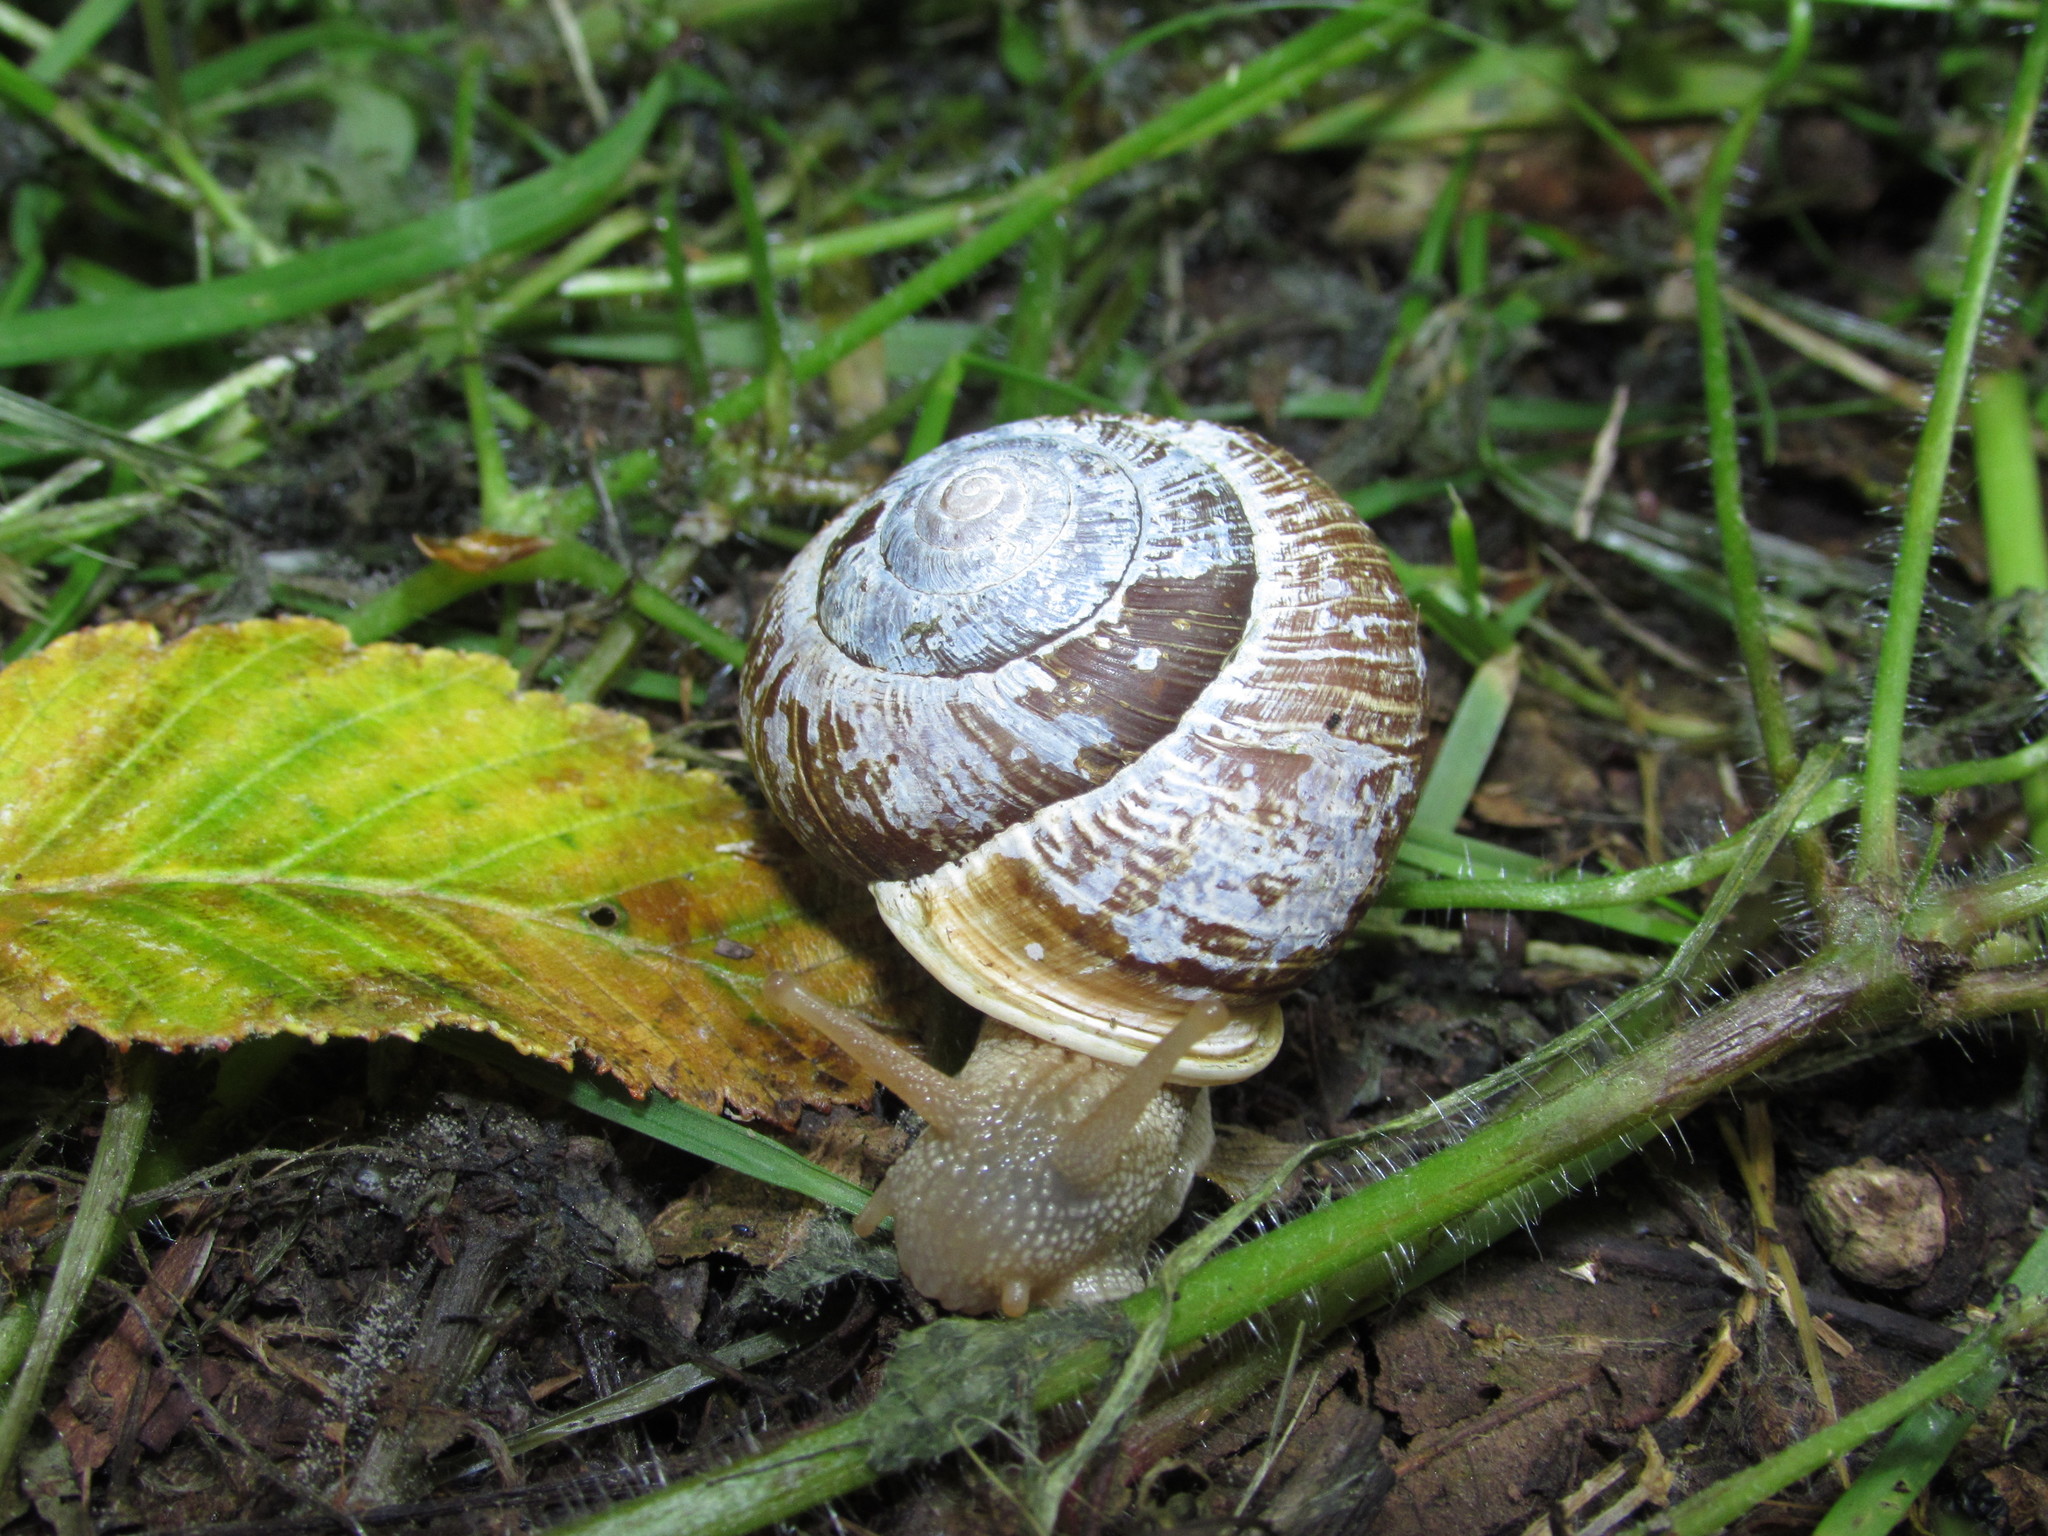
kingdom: Animalia
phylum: Mollusca
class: Gastropoda
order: Stylommatophora
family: Polygyridae
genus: Allogona
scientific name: Allogona townsendiana
